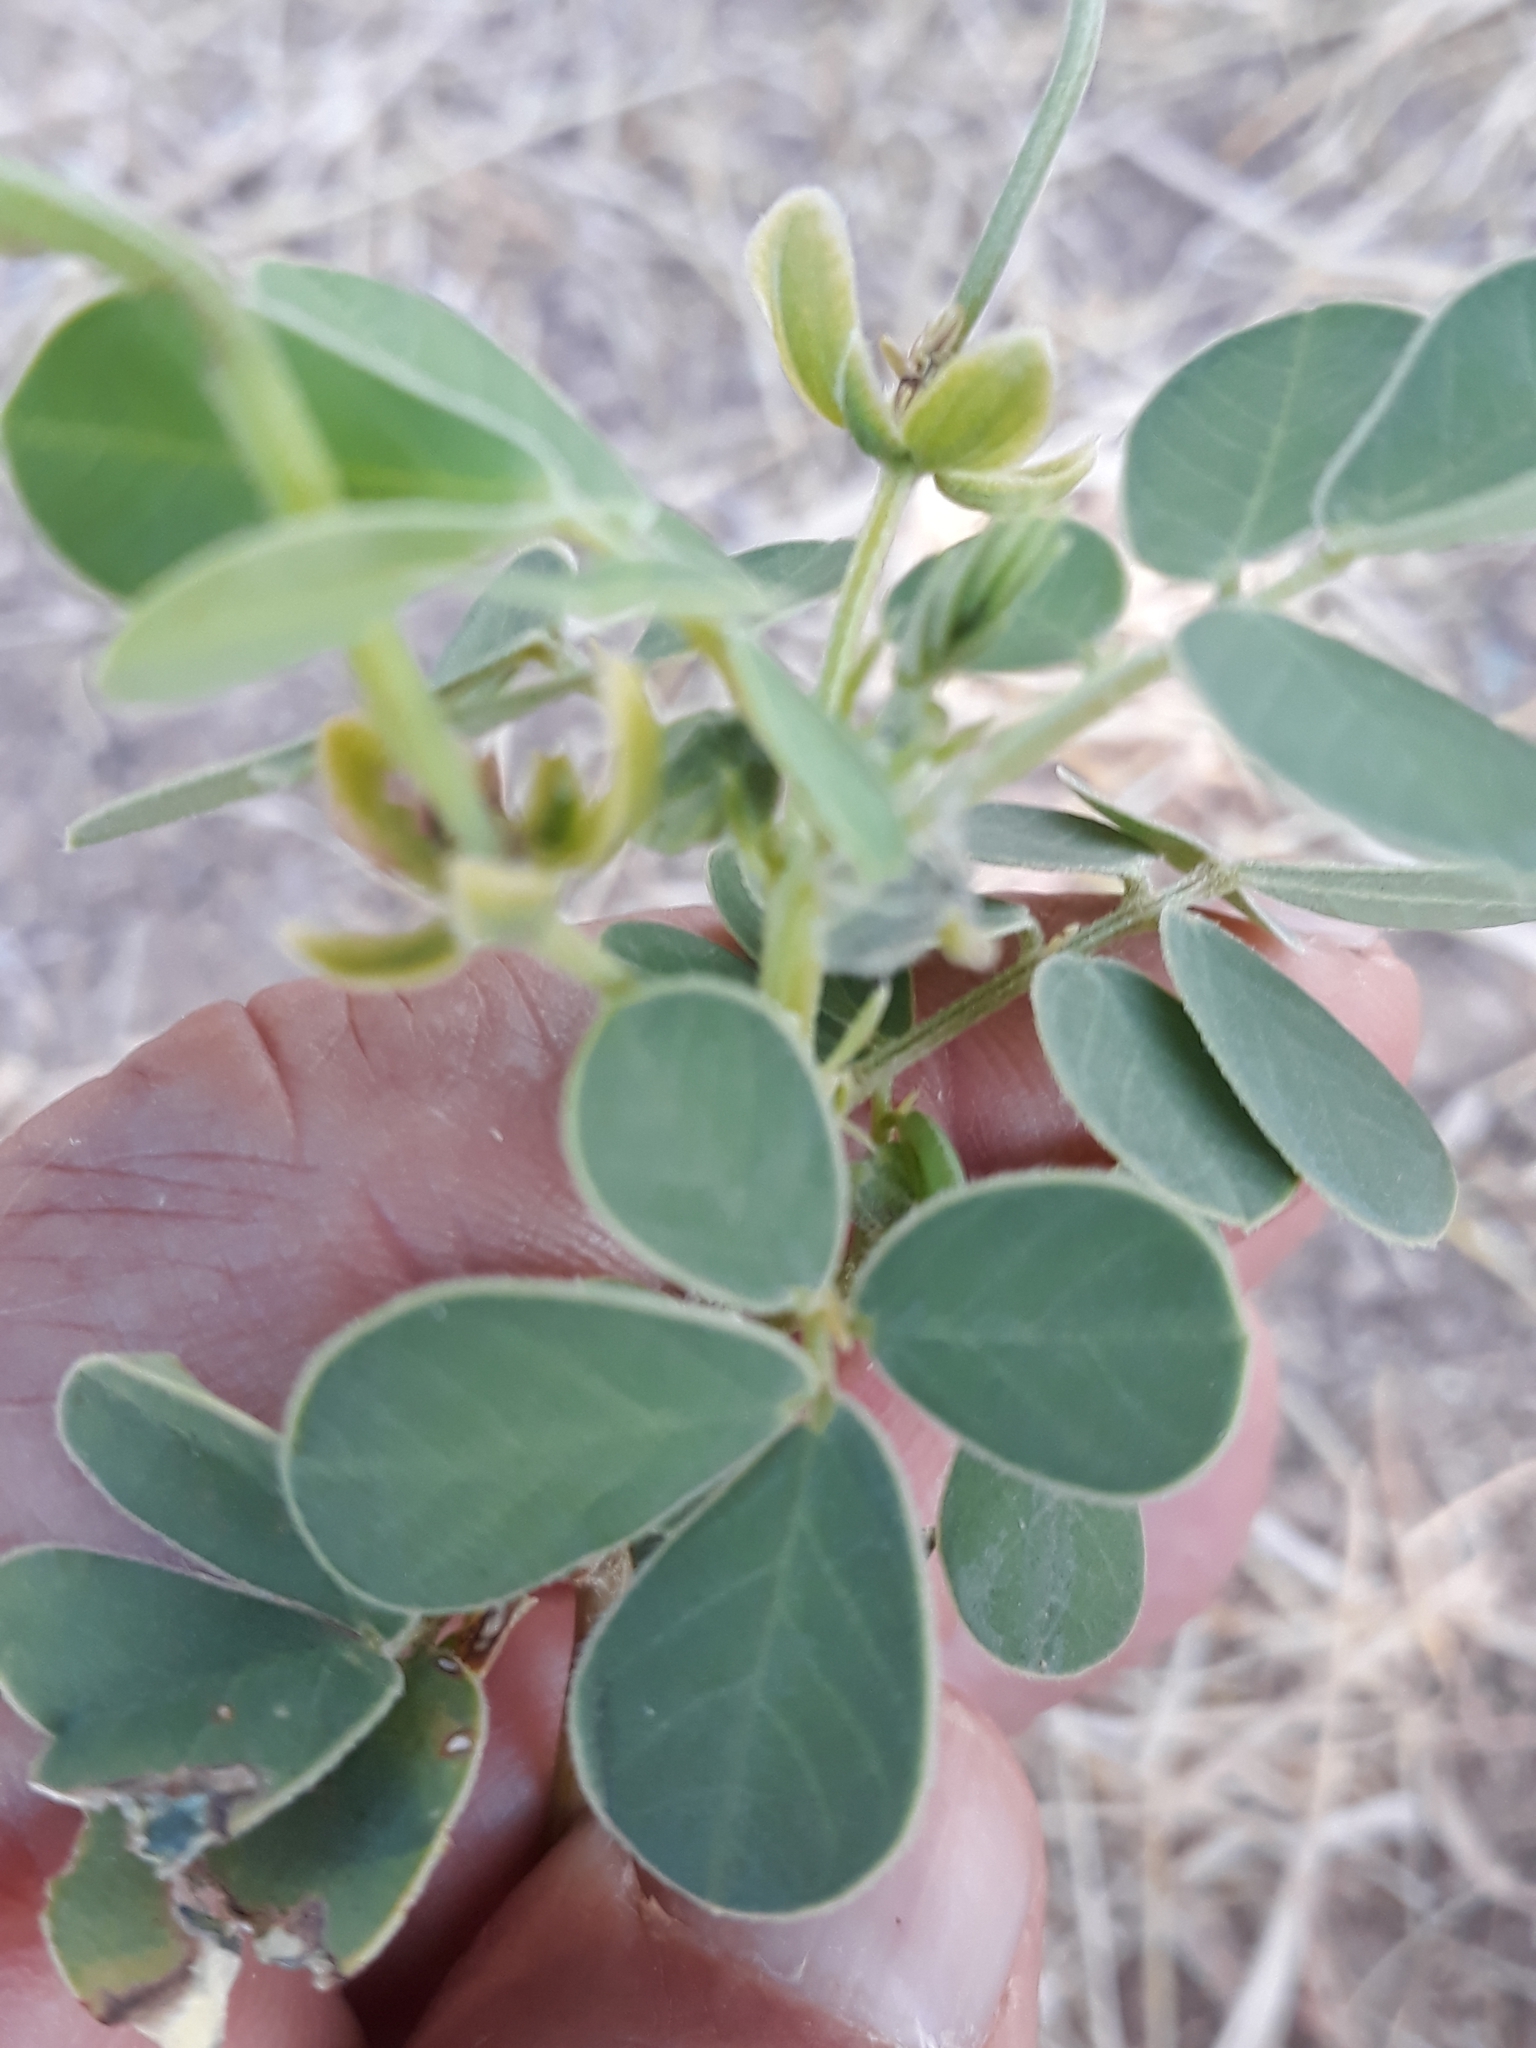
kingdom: Plantae
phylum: Tracheophyta
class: Magnoliopsida
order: Fabales
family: Fabaceae
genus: Senna
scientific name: Senna obtusifolia
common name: Java-bean
